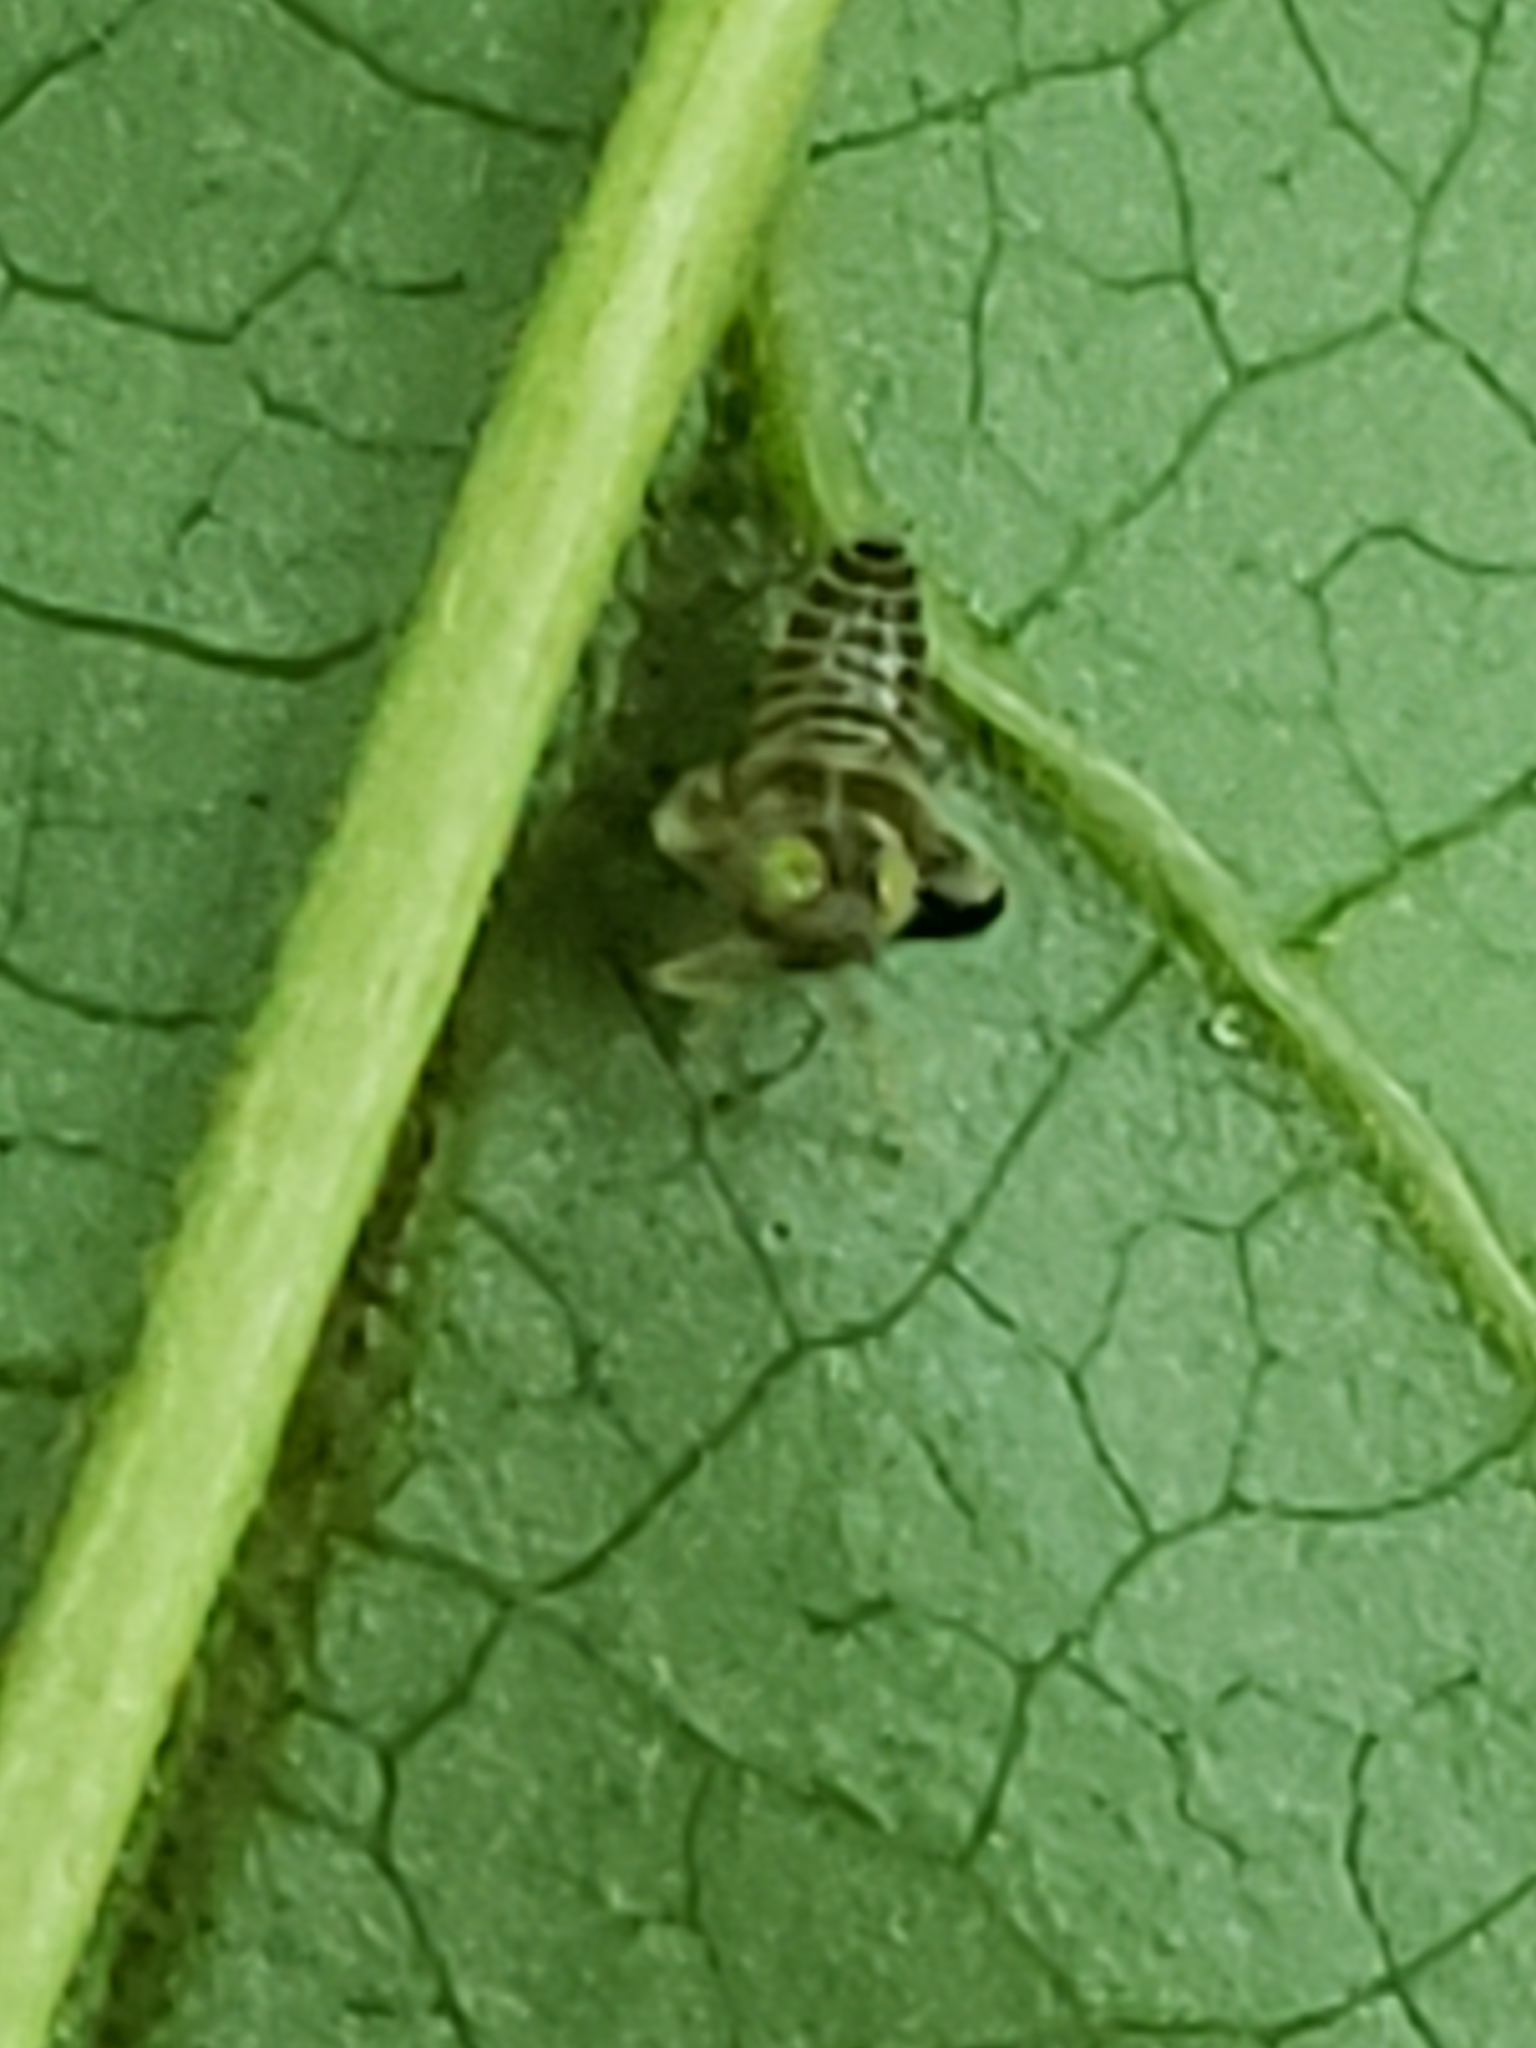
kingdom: Animalia
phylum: Arthropoda
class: Insecta
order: Hemiptera
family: Cicadellidae
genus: Jikradia
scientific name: Jikradia olitoria
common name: Coppery leafhopper
